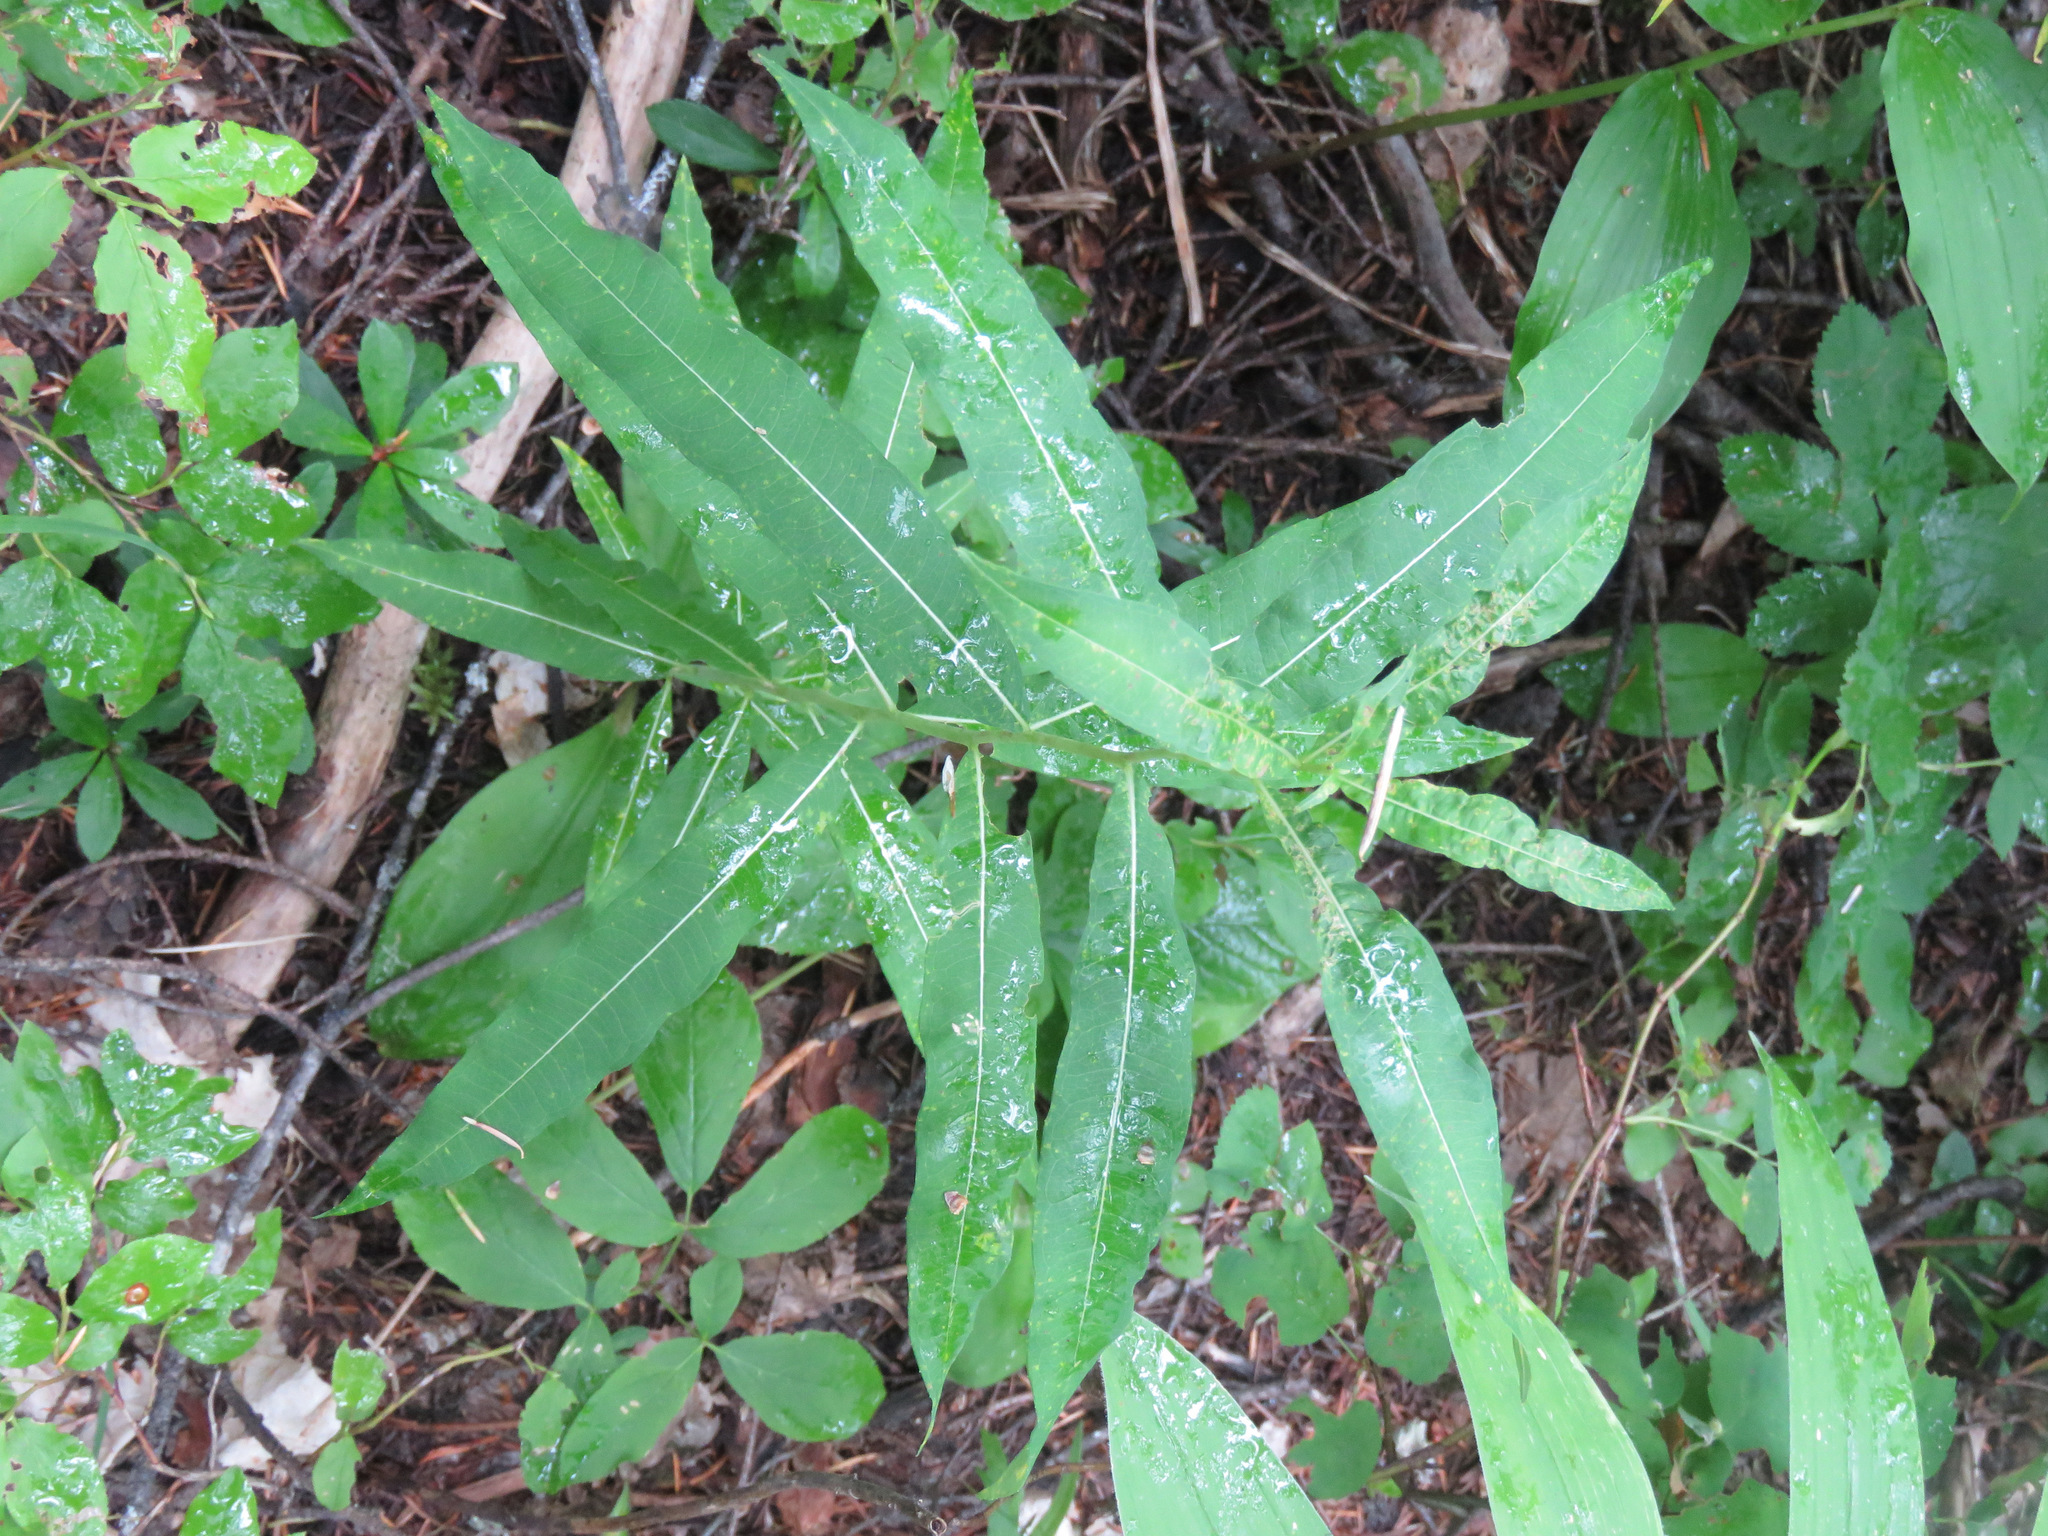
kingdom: Plantae
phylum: Tracheophyta
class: Magnoliopsida
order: Myrtales
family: Onagraceae
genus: Chamaenerion
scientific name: Chamaenerion angustifolium
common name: Fireweed
